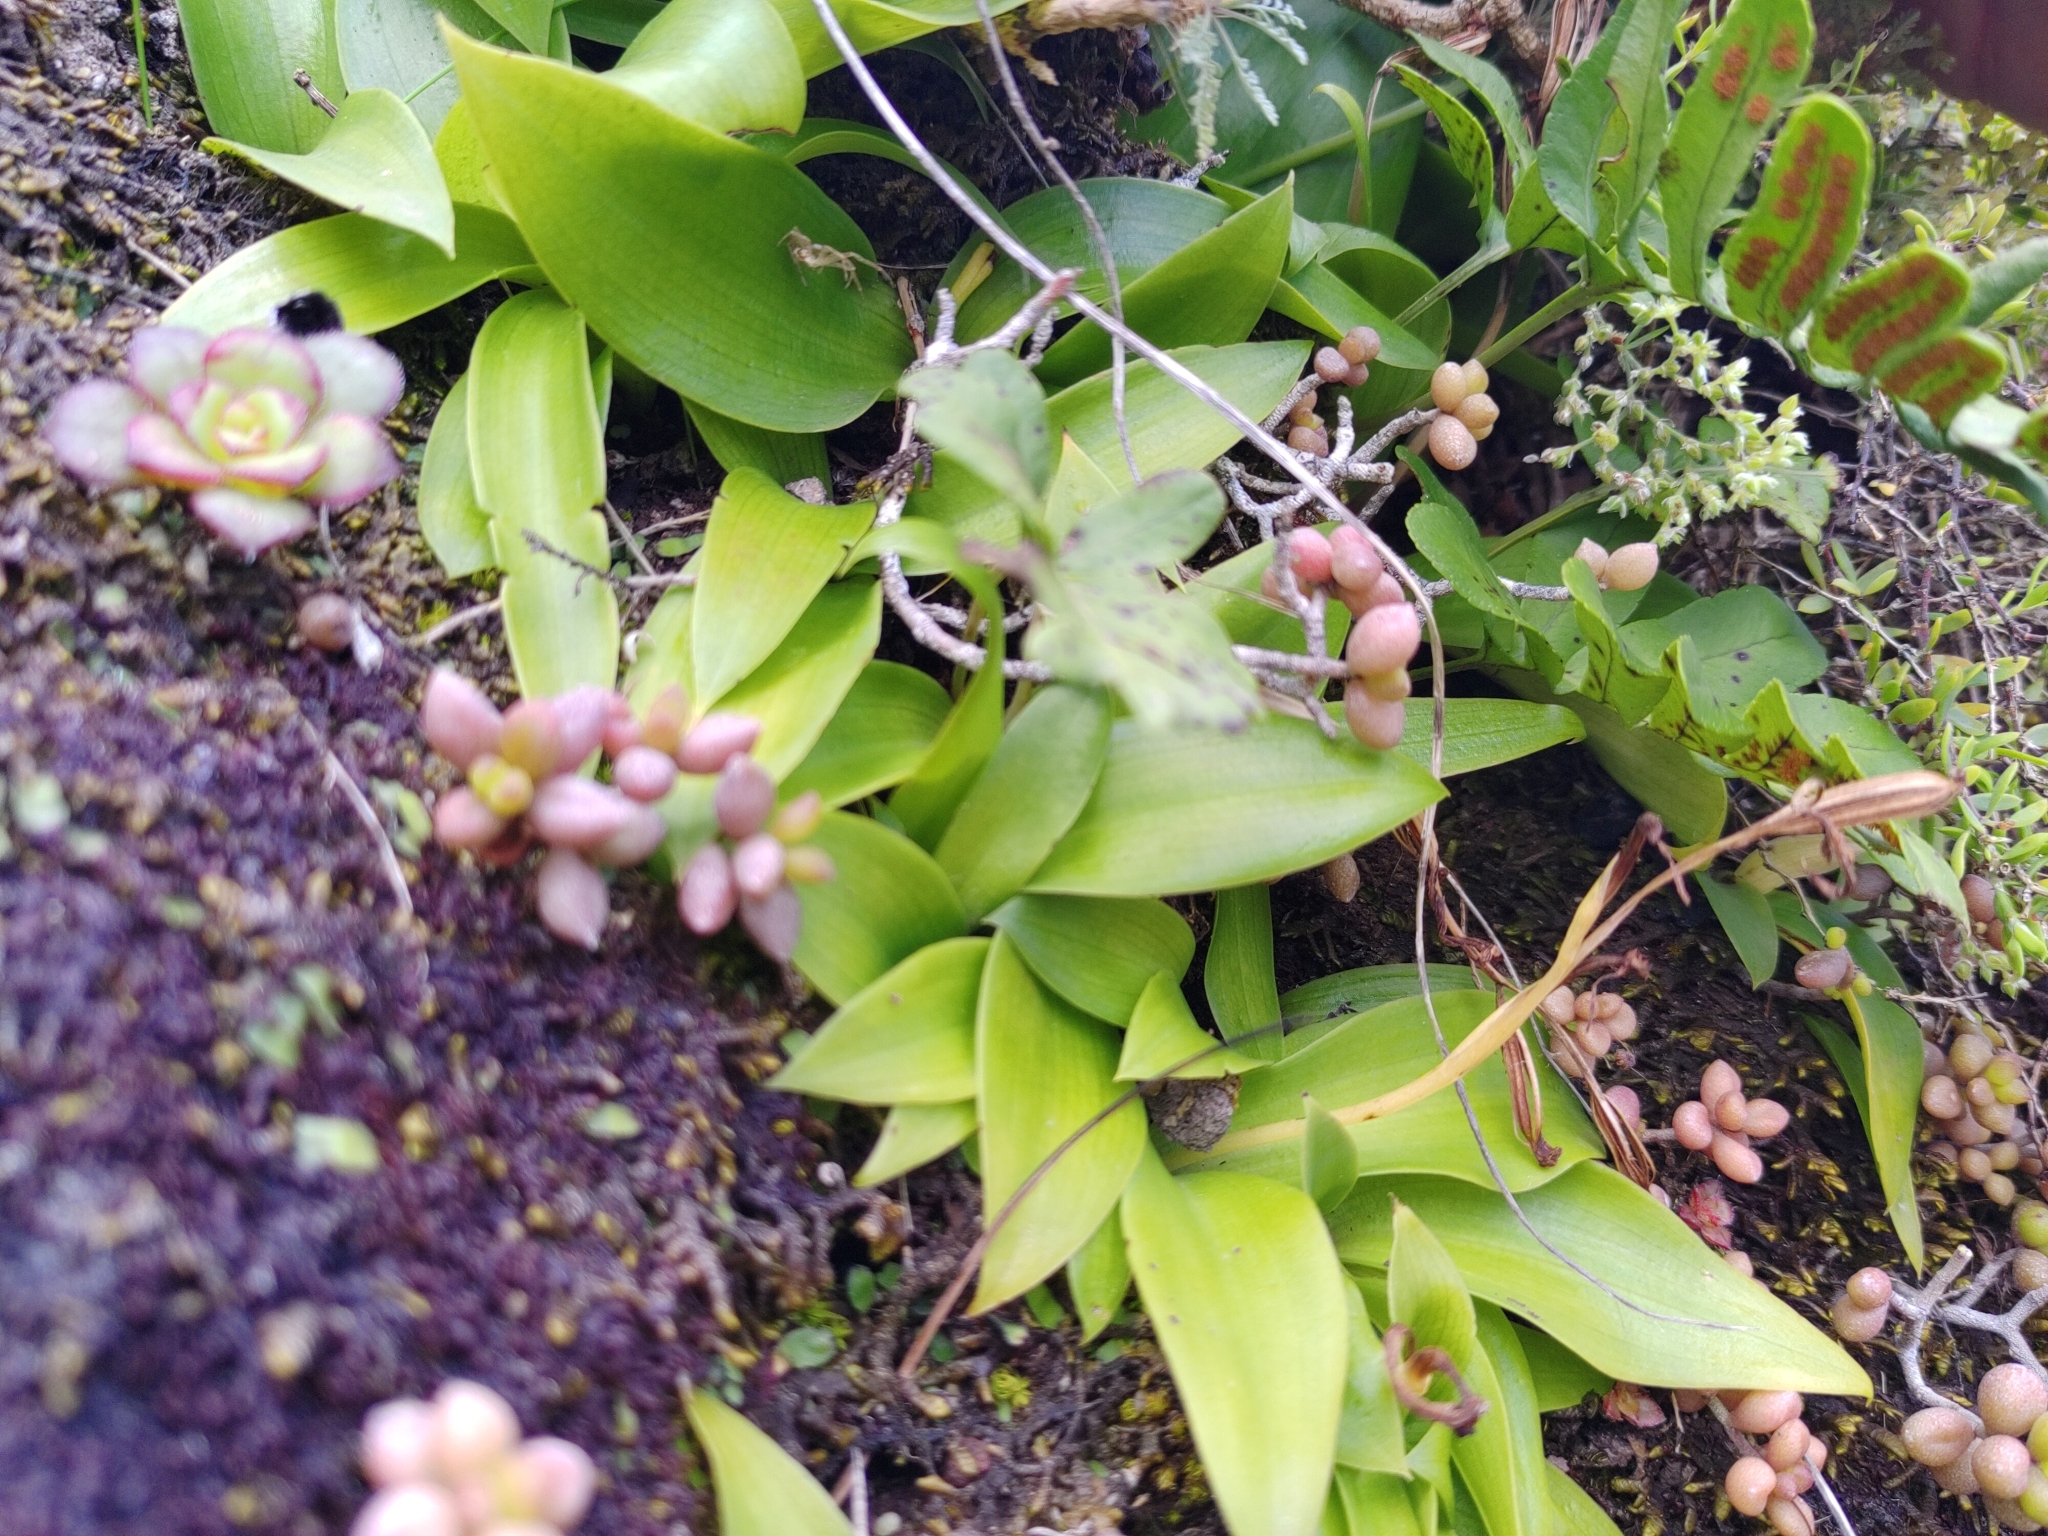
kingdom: Plantae
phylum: Tracheophyta
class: Magnoliopsida
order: Saxifragales
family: Crassulaceae
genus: Monanthes
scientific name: Monanthes laxiflora
